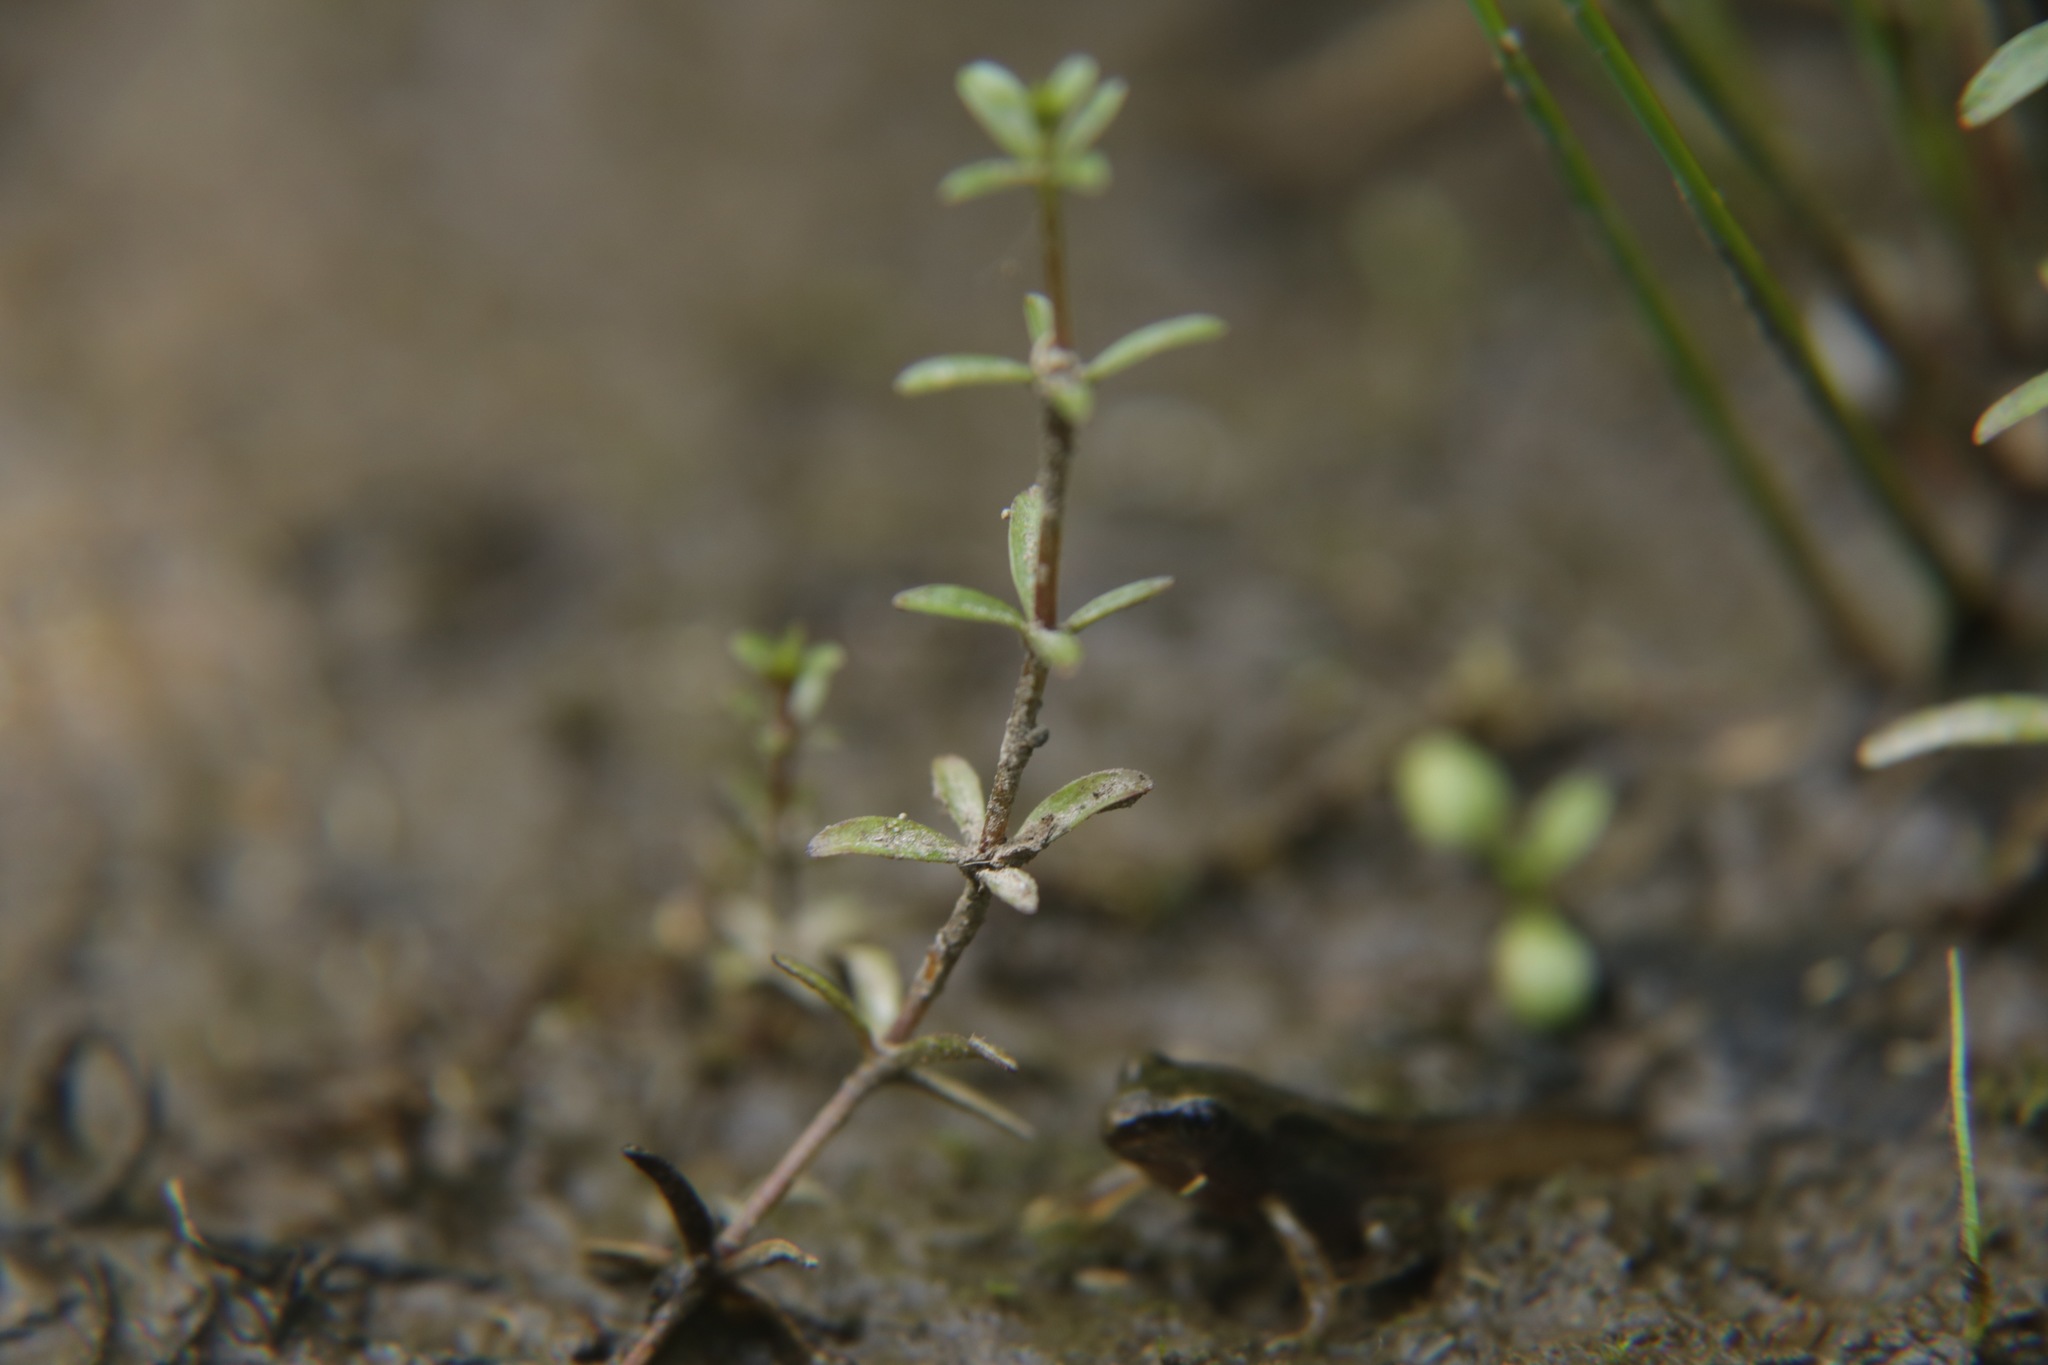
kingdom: Plantae
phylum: Tracheophyta
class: Magnoliopsida
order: Gentianales
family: Rubiaceae
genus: Galium
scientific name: Galium palustre
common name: Common marsh-bedstraw
